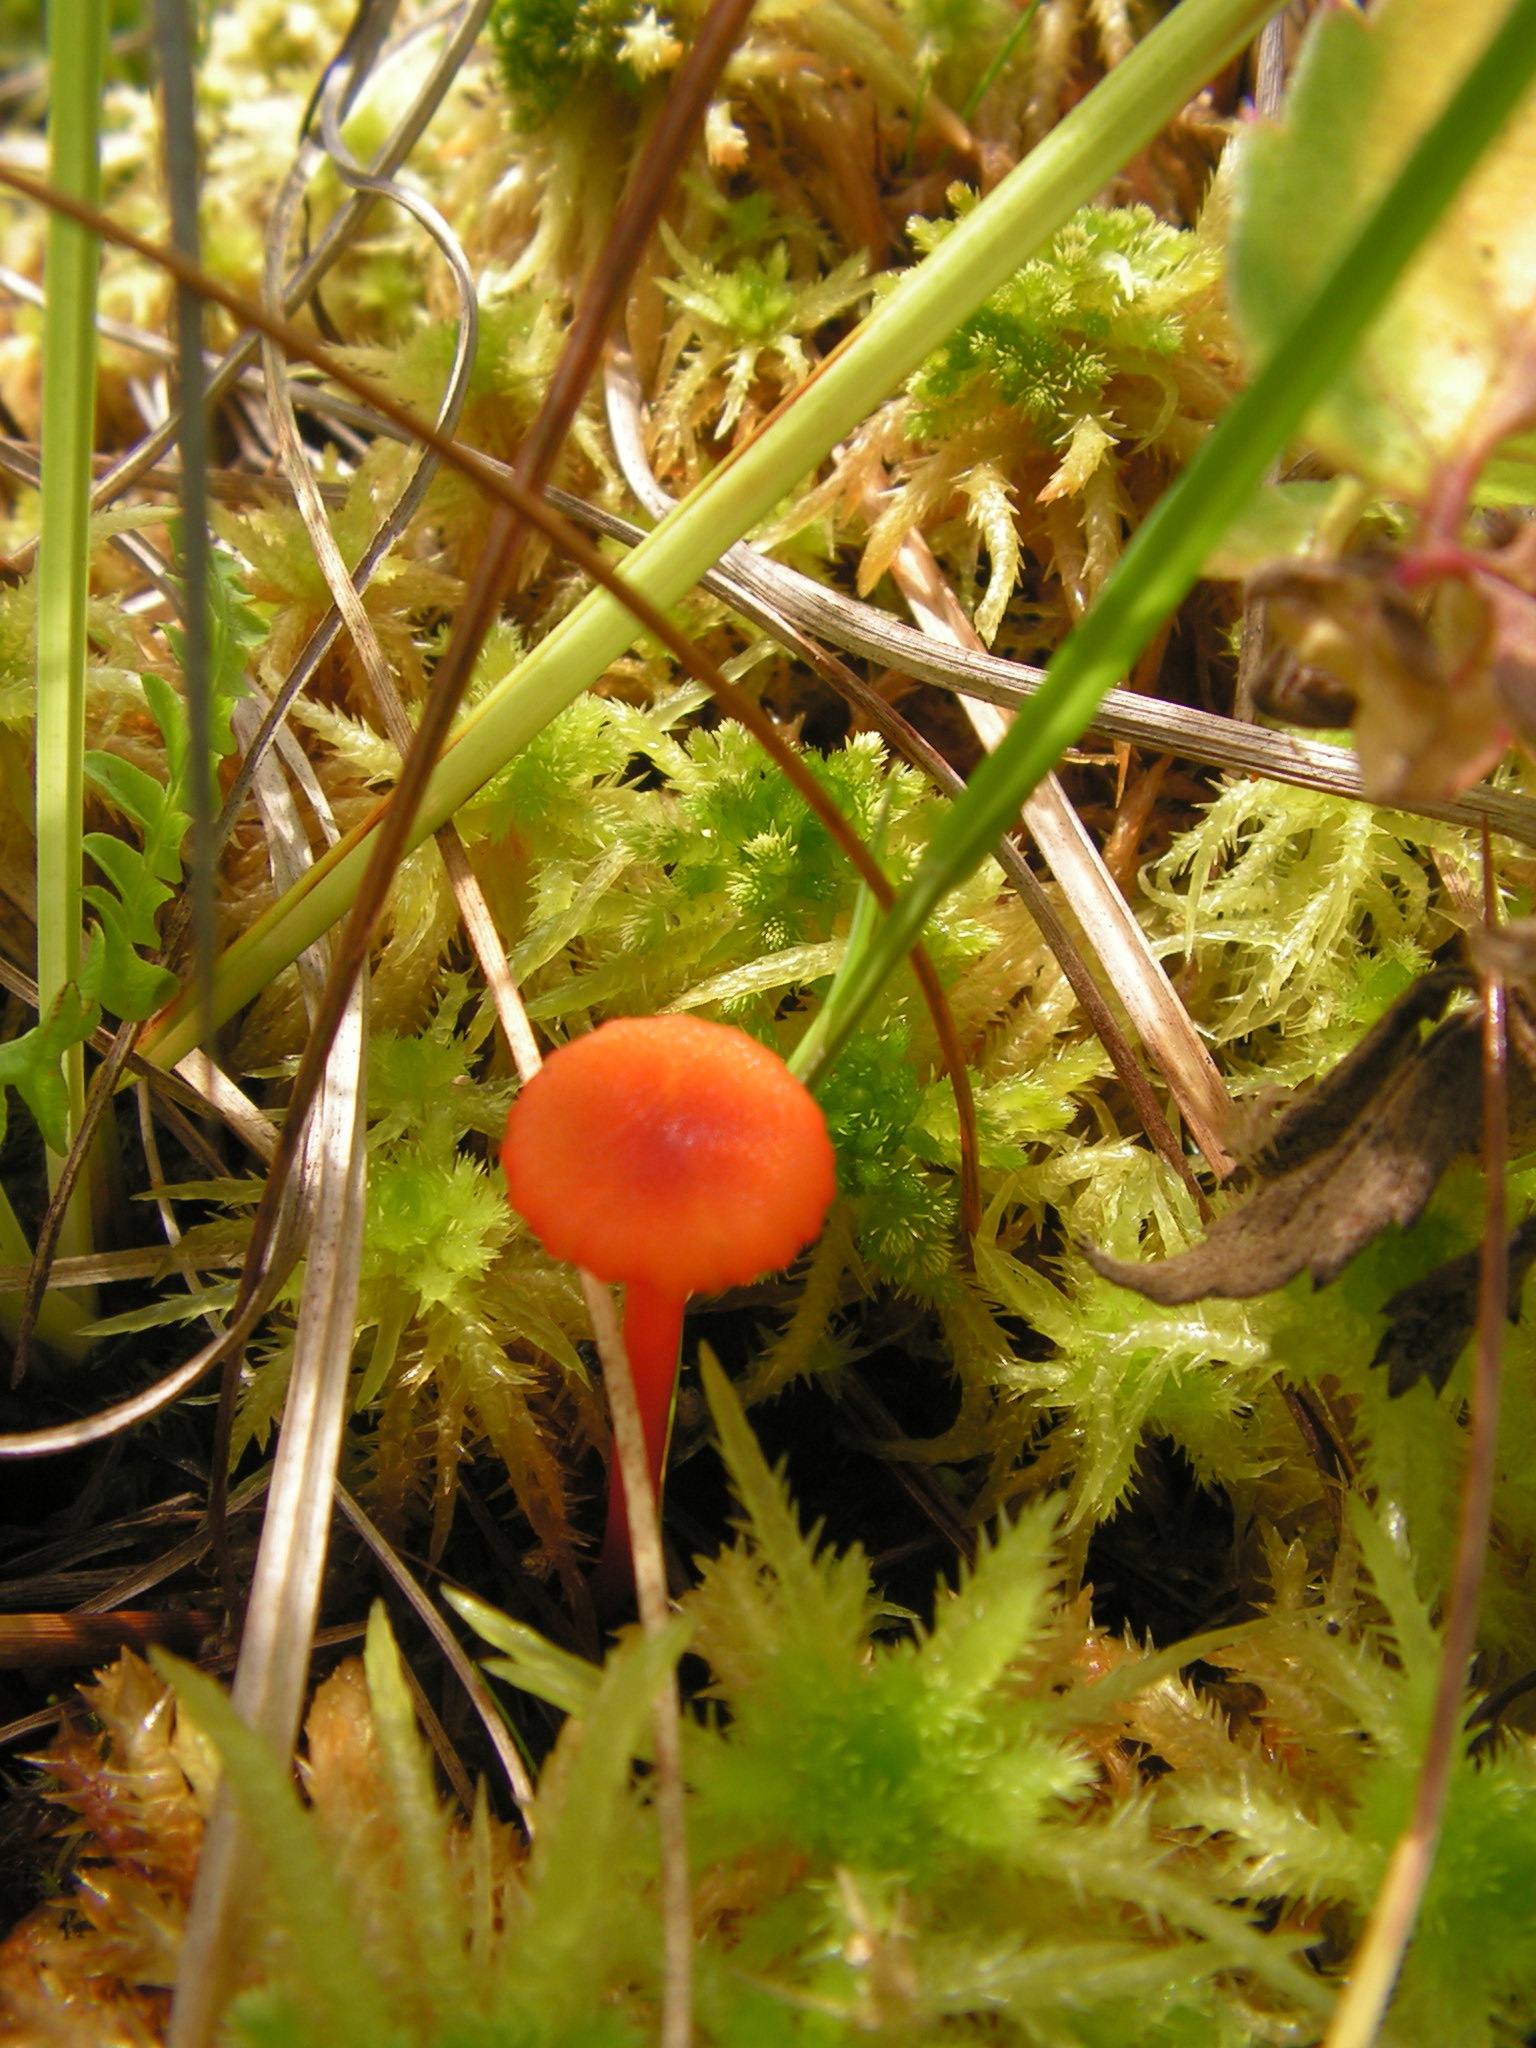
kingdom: Fungi
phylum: Basidiomycota
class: Agaricomycetes
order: Agaricales
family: Hygrophoraceae
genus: Hygrocybe
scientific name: Hygrocybe coccineocrenata
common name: Bog waxcap
